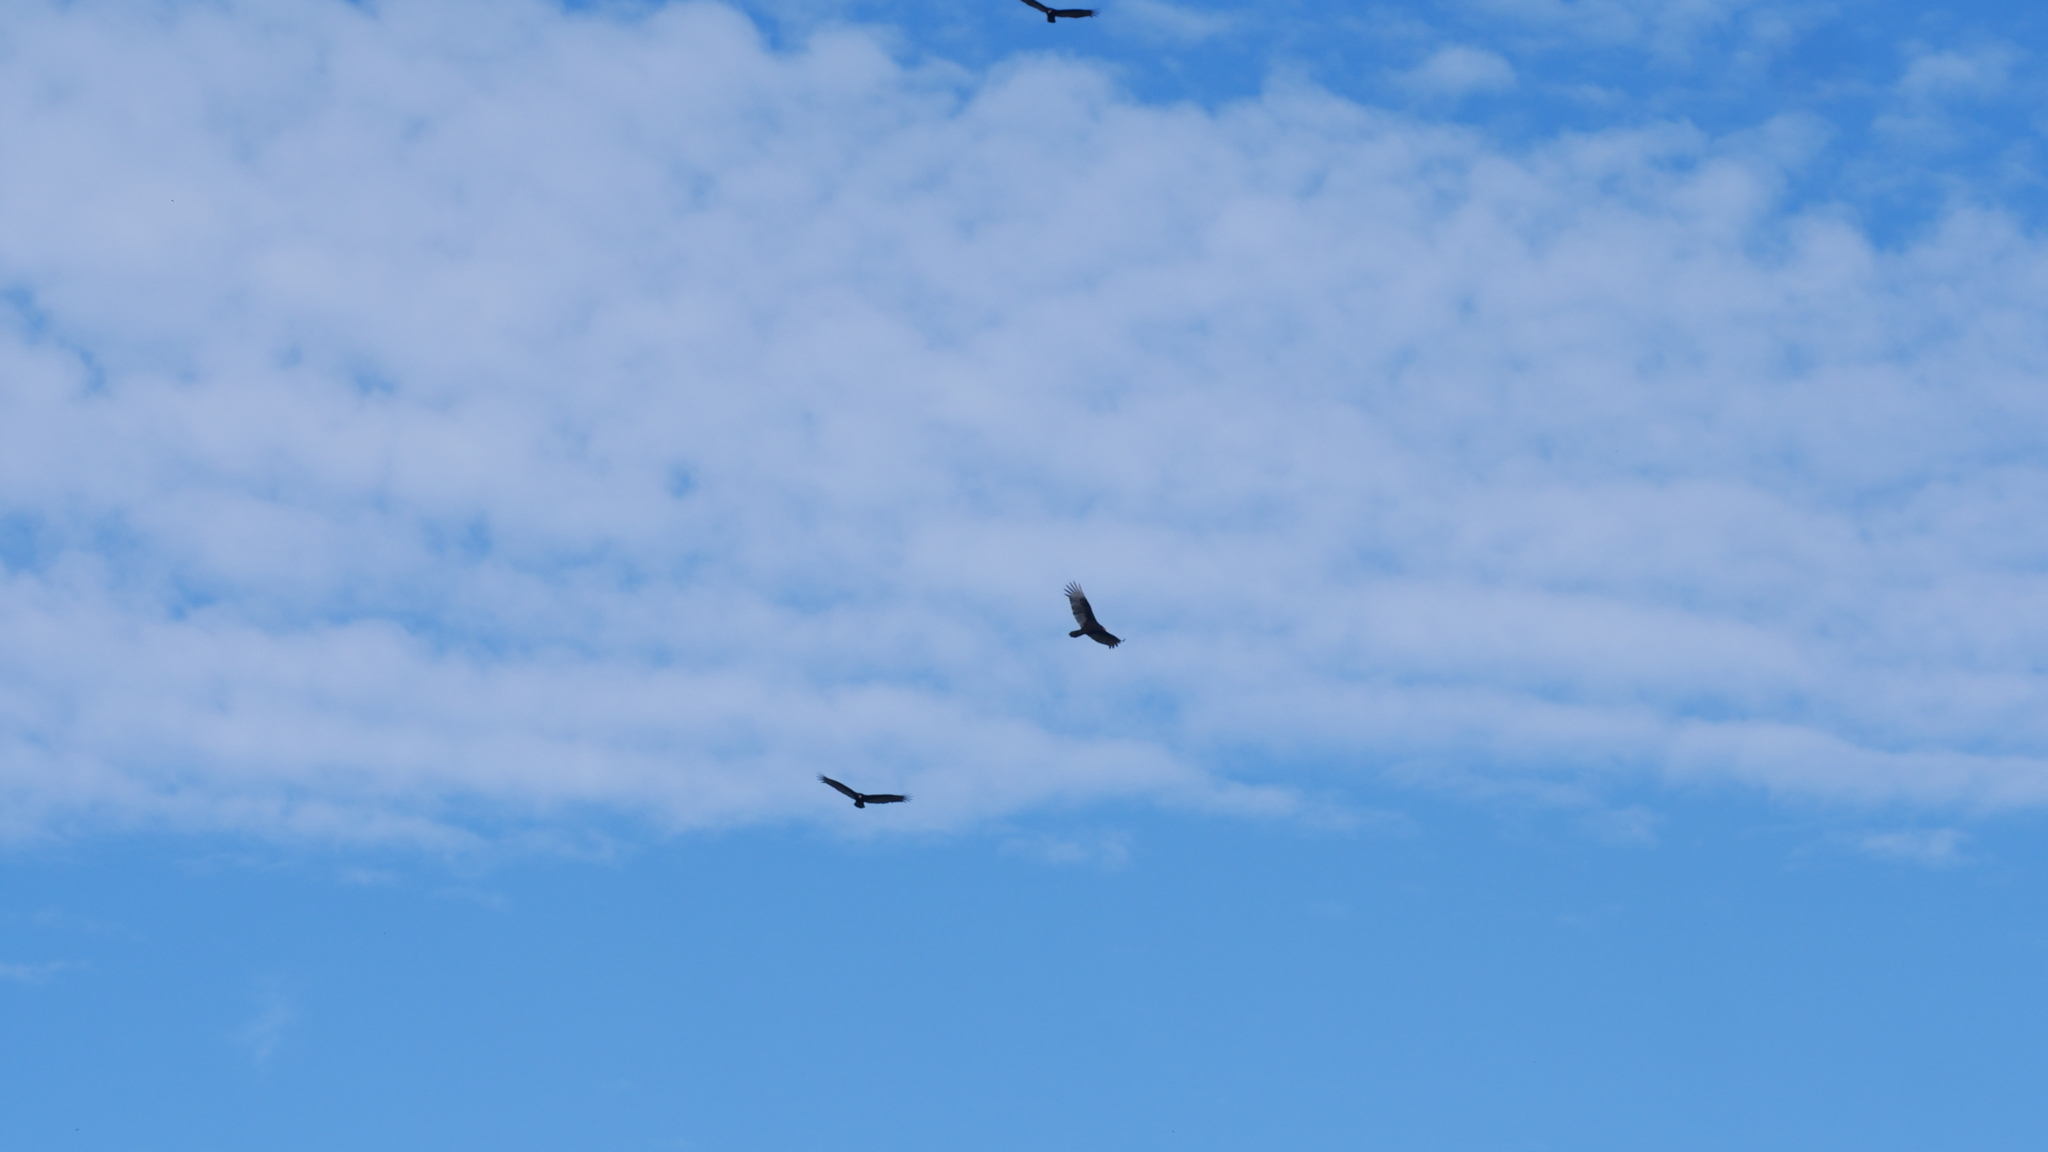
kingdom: Animalia
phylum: Chordata
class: Aves
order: Accipitriformes
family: Cathartidae
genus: Cathartes
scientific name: Cathartes aura
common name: Turkey vulture
